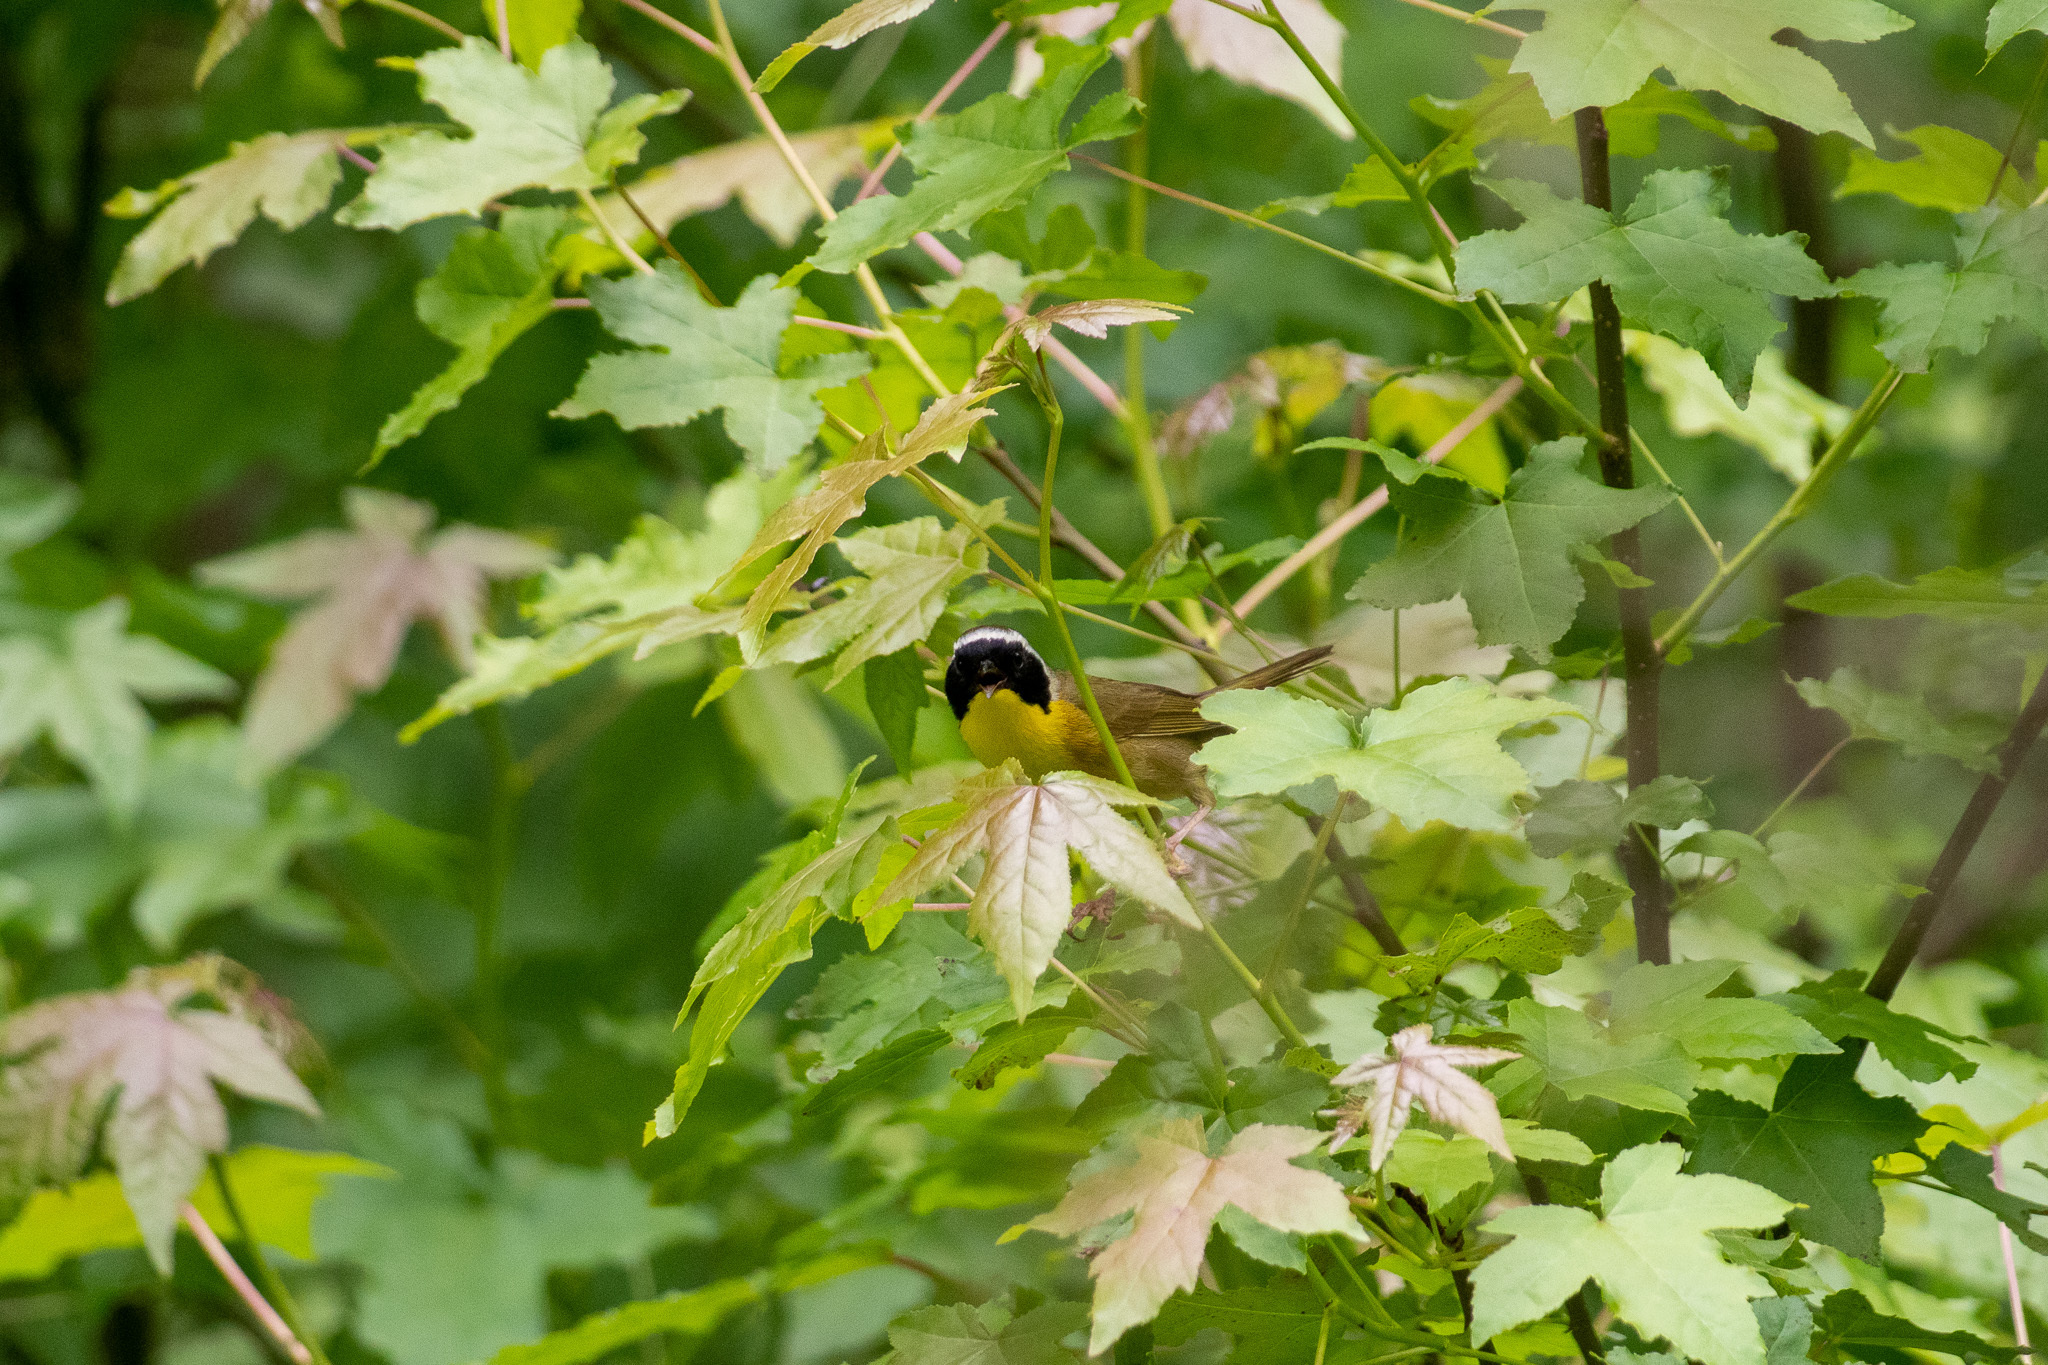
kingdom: Animalia
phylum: Chordata
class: Aves
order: Passeriformes
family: Parulidae
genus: Geothlypis
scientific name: Geothlypis trichas
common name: Common yellowthroat
